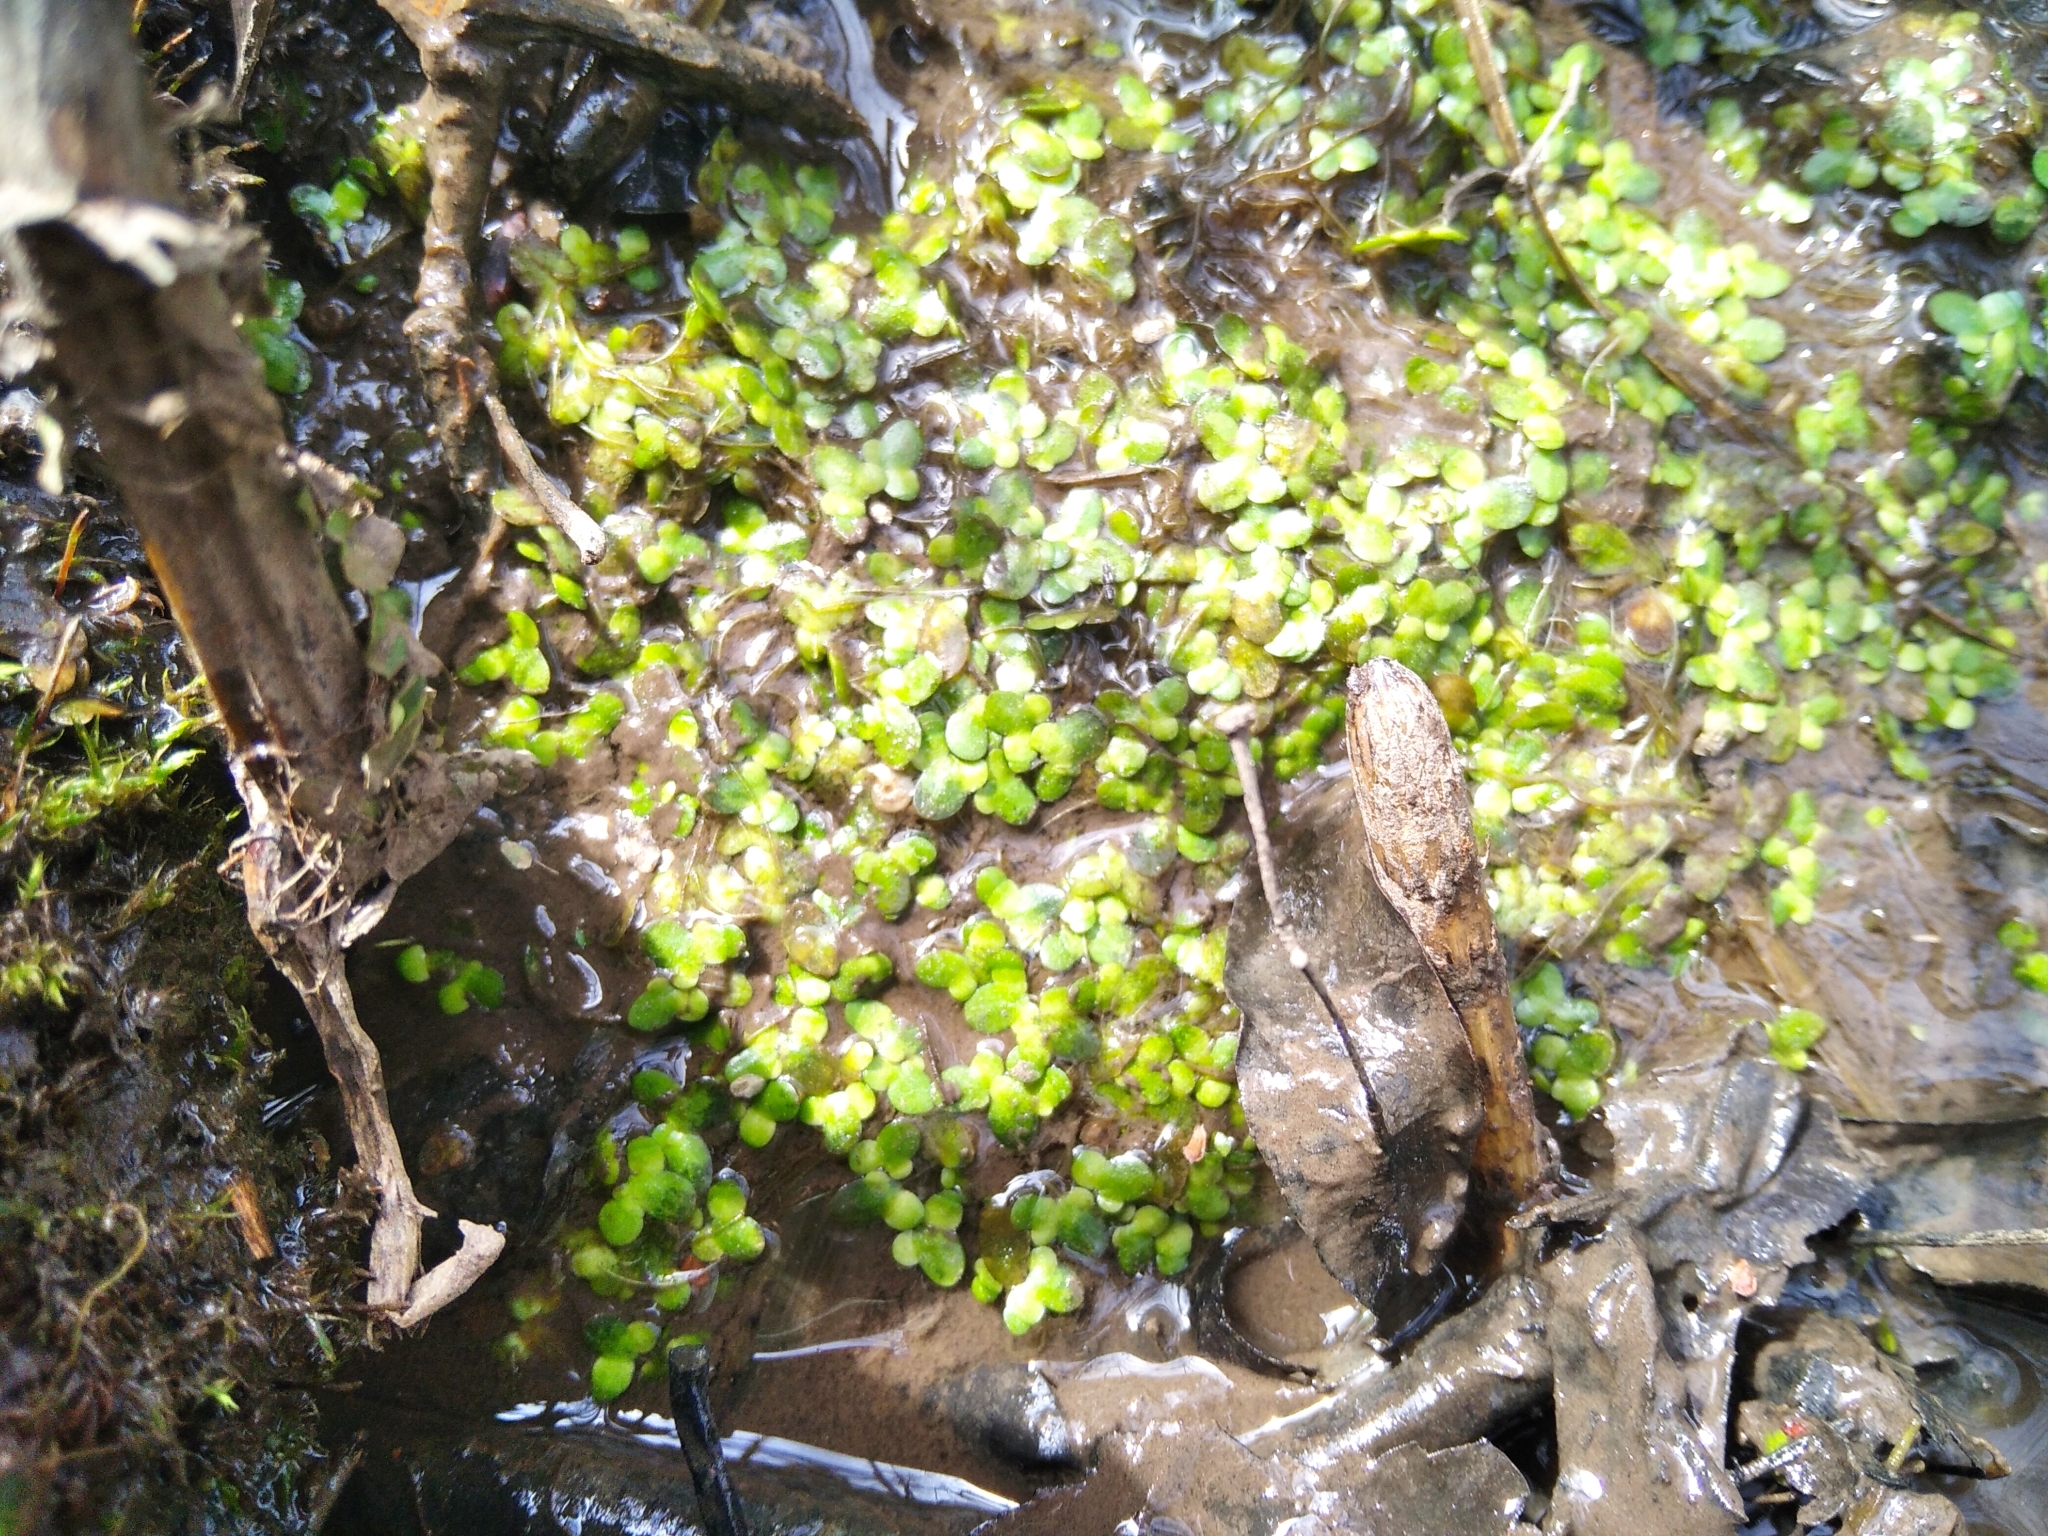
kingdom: Plantae
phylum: Tracheophyta
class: Liliopsida
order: Alismatales
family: Araceae
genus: Spirodela
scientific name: Spirodela polyrhiza
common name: Great duckweed
